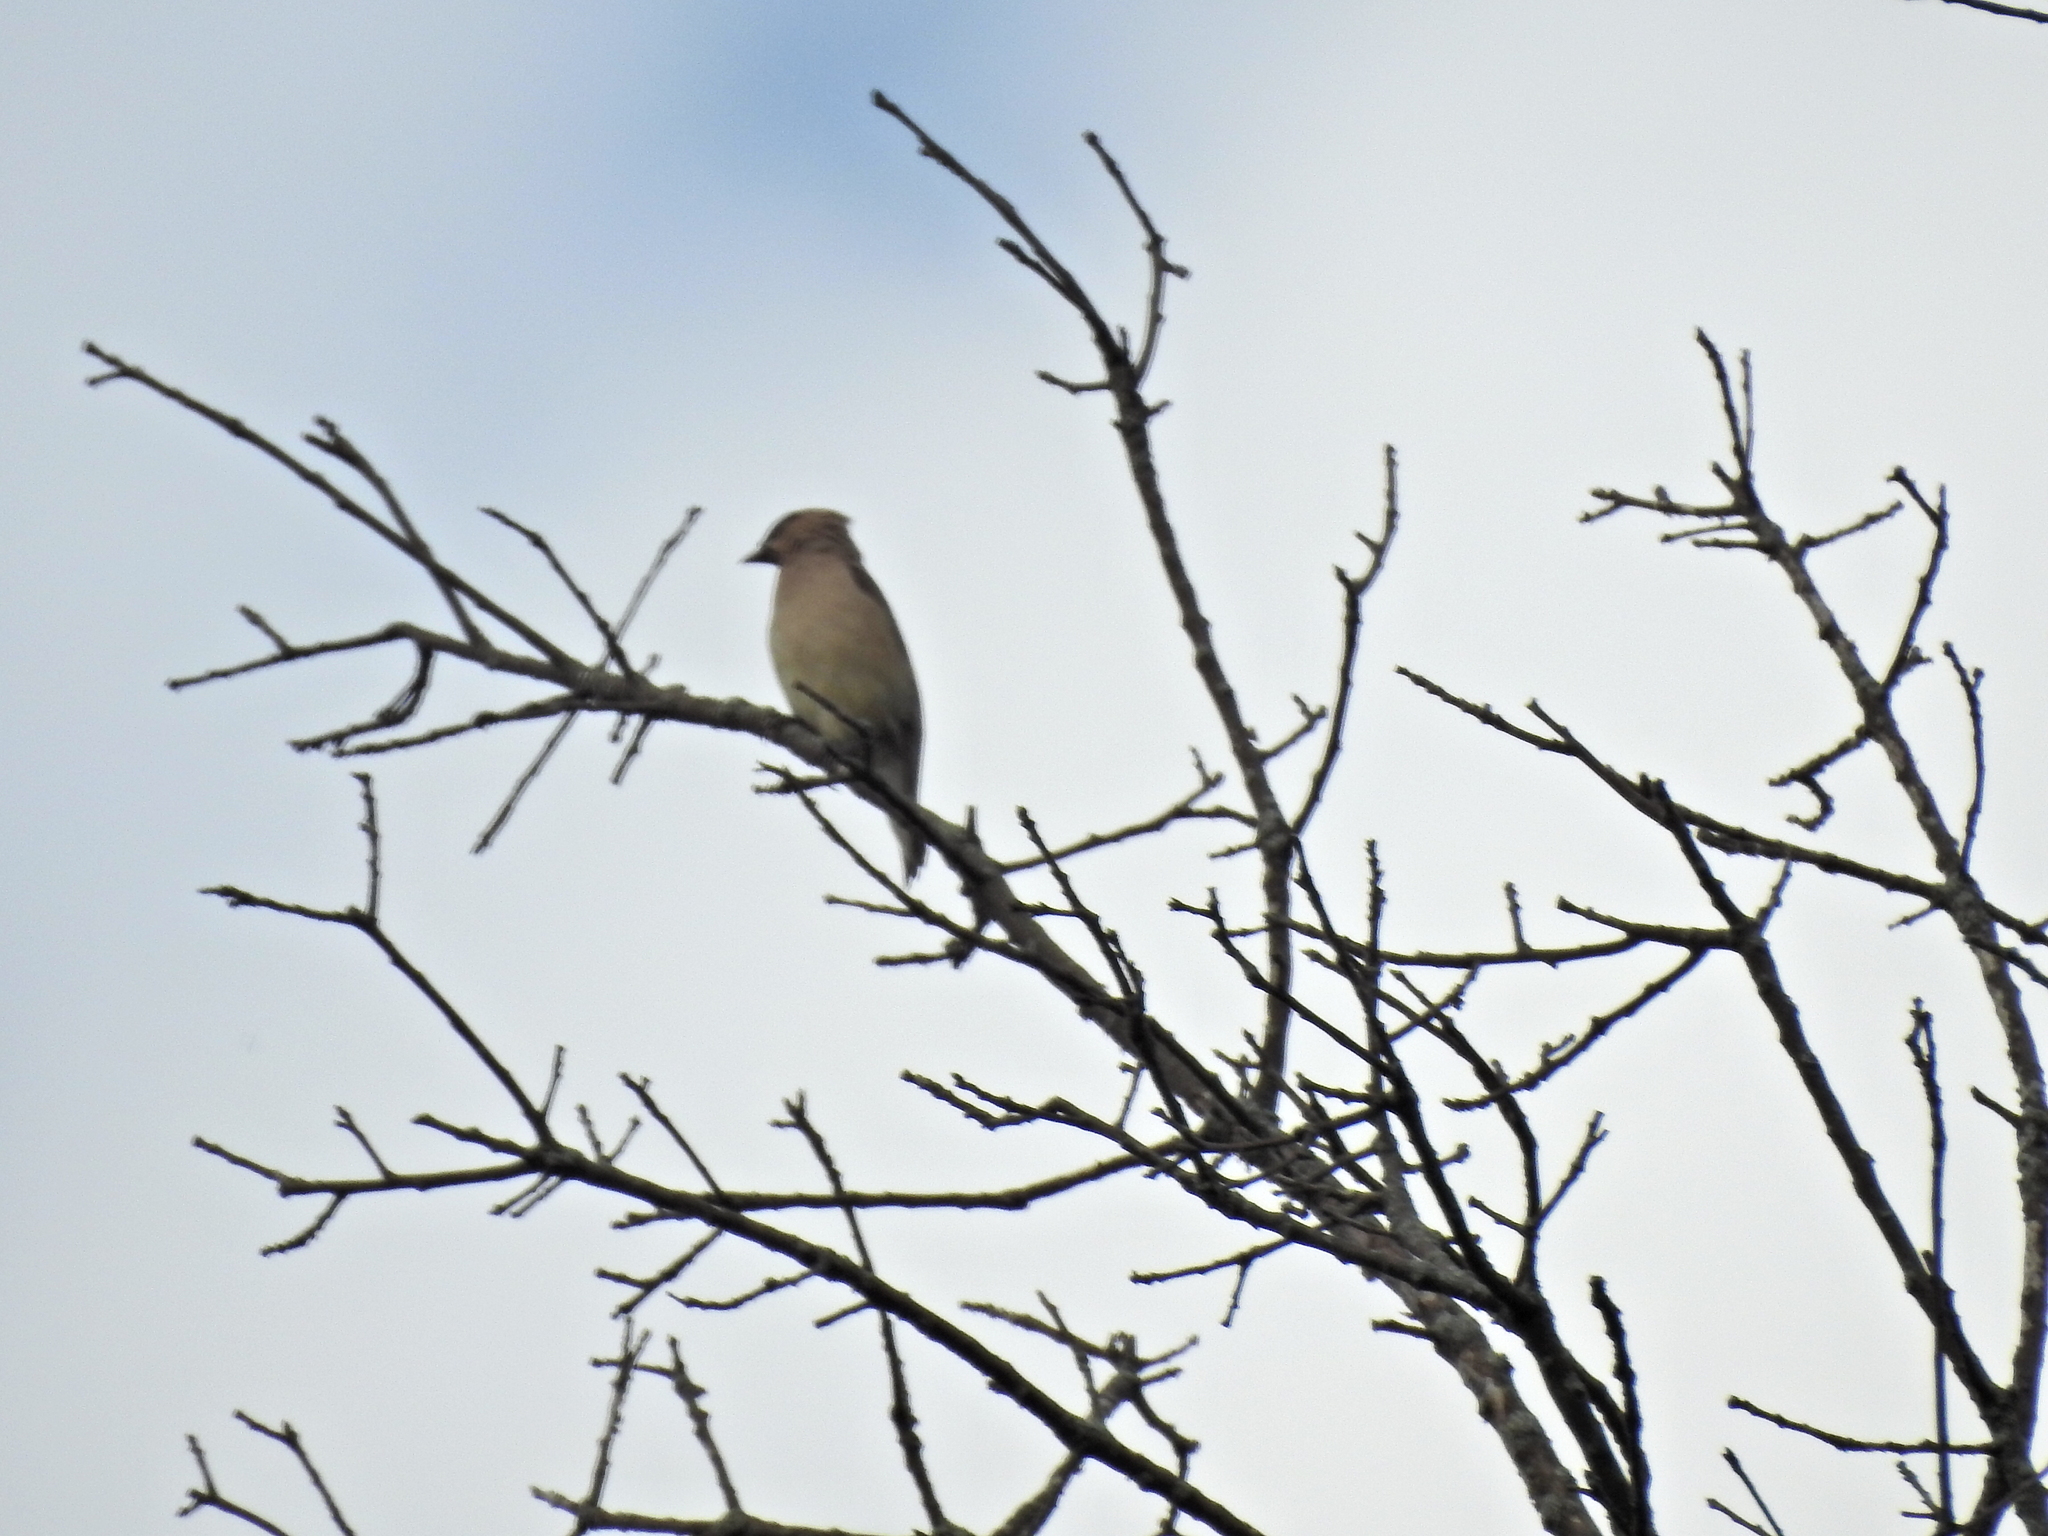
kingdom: Animalia
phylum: Chordata
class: Aves
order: Passeriformes
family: Bombycillidae
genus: Bombycilla
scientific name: Bombycilla cedrorum
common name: Cedar waxwing
